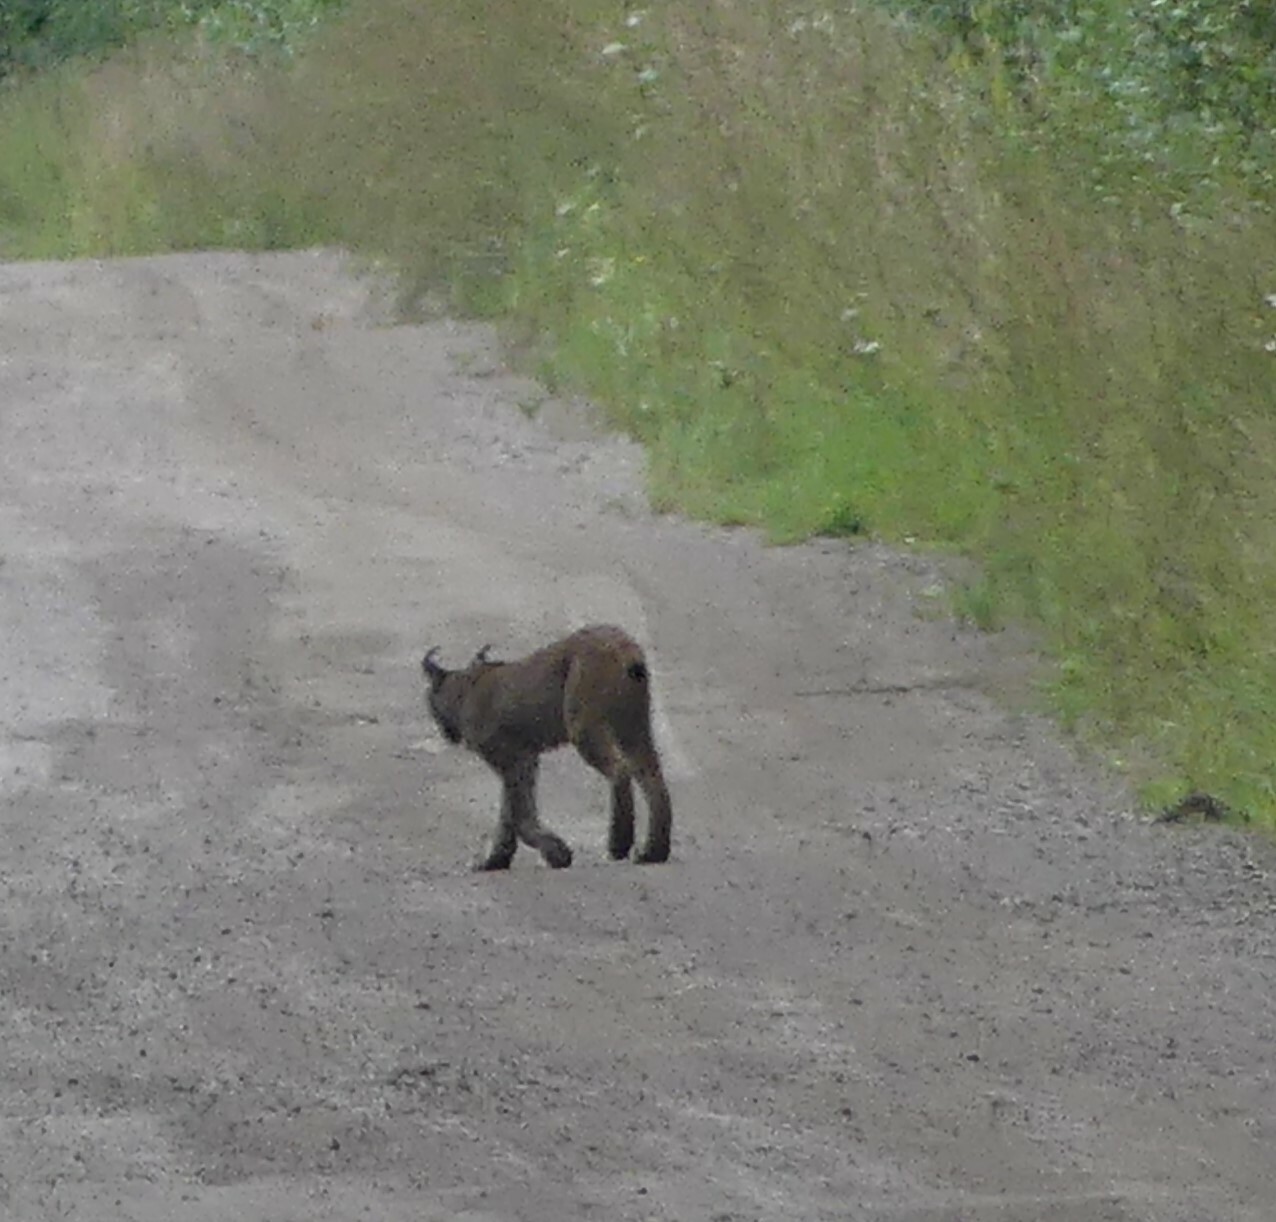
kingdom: Animalia
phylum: Chordata
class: Mammalia
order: Carnivora
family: Felidae
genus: Lynx
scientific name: Lynx canadensis
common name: Canadian lynx
